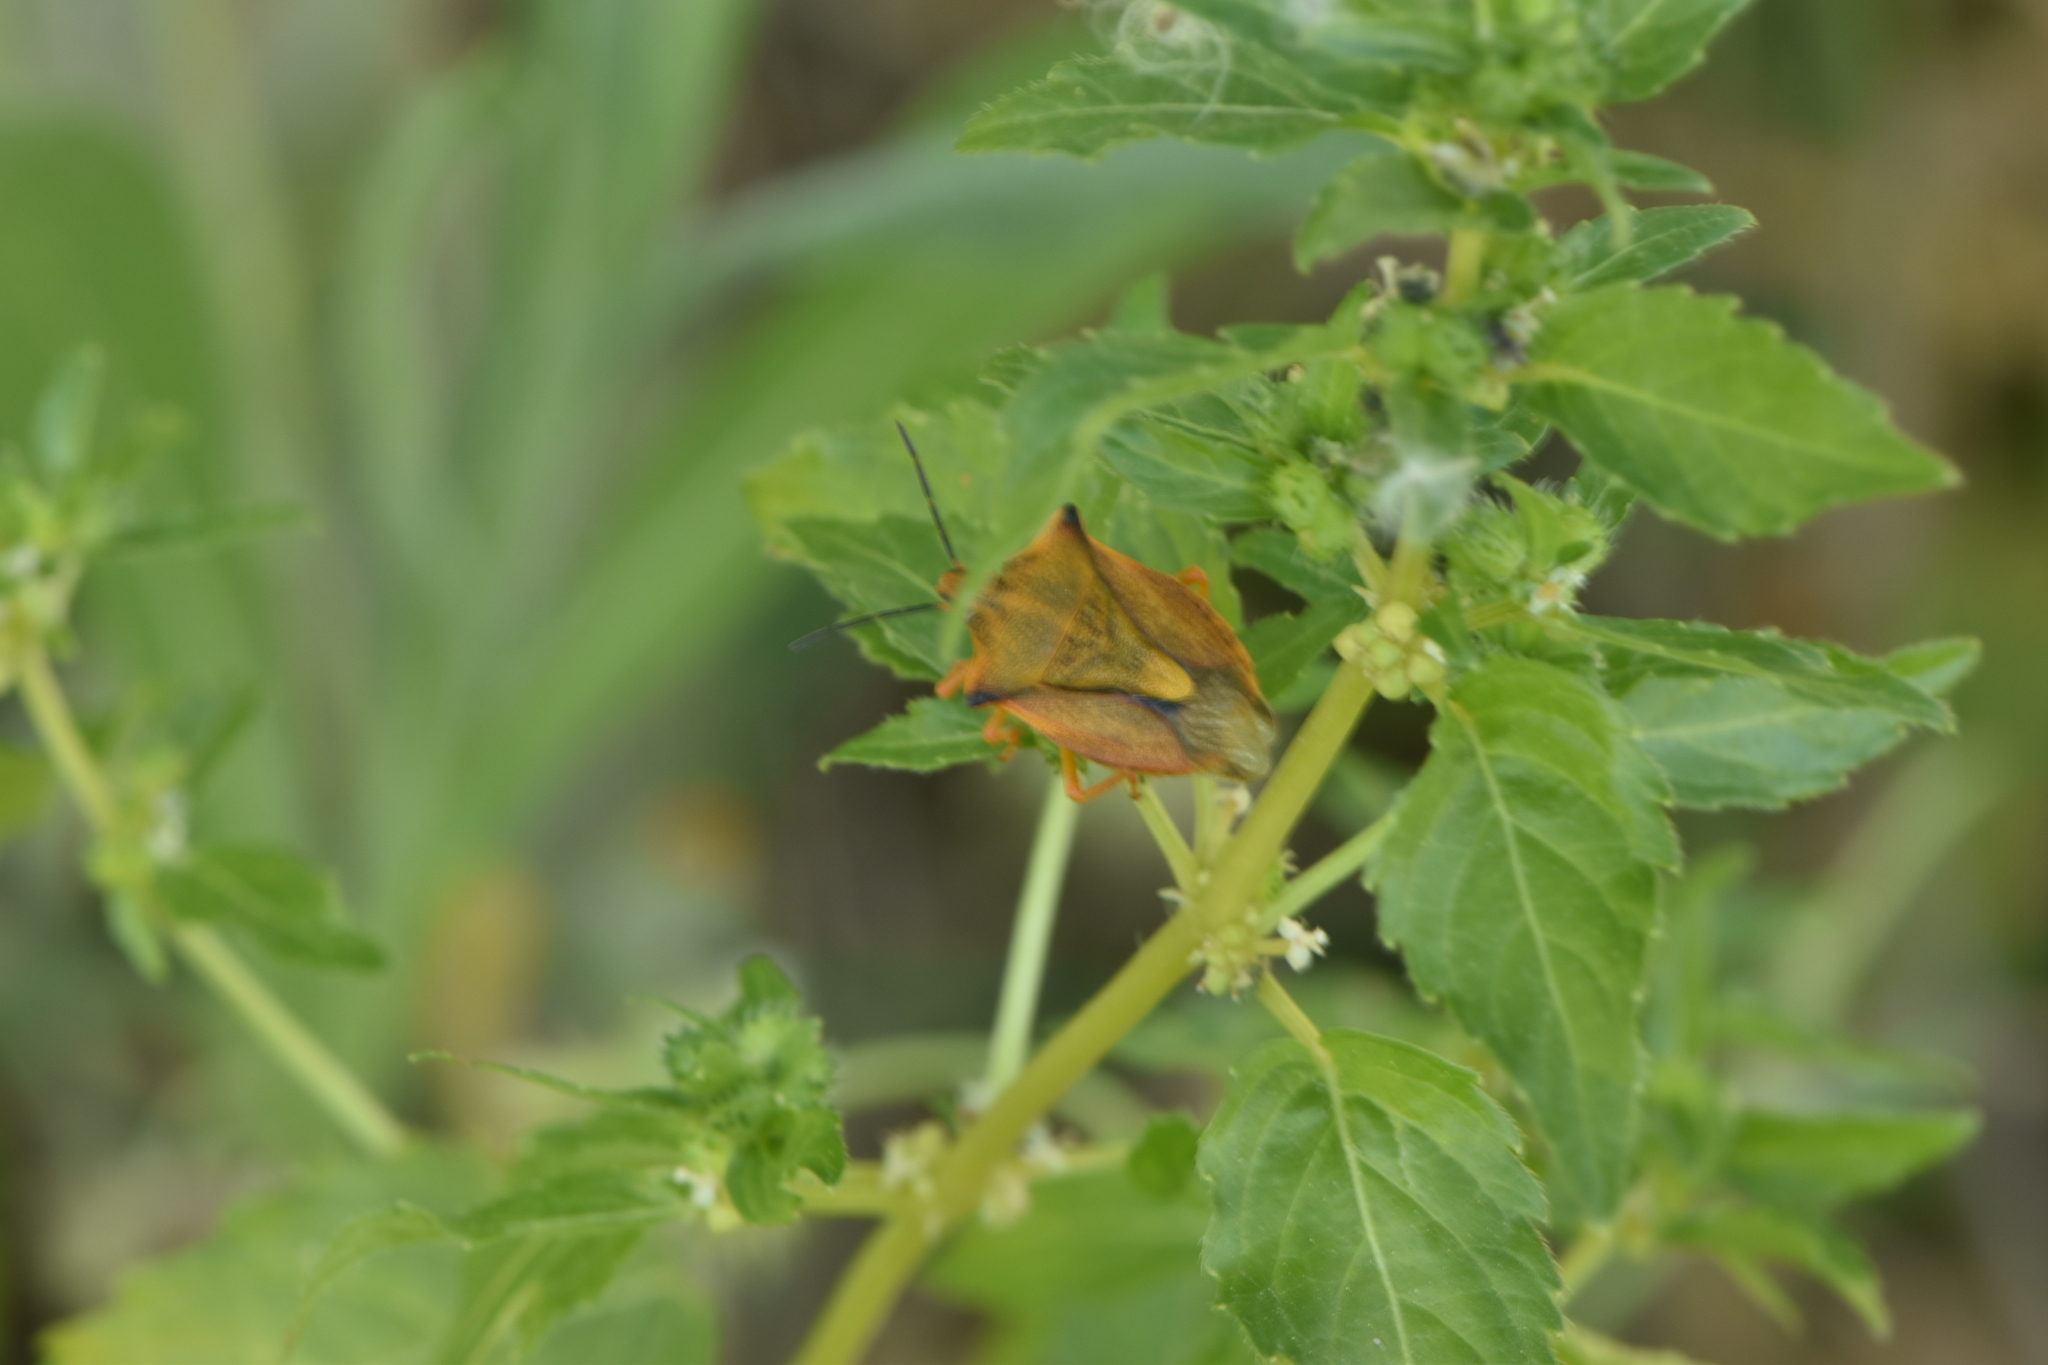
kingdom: Animalia
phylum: Arthropoda
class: Insecta
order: Hemiptera
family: Pentatomidae
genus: Carpocoris
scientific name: Carpocoris mediterraneus
